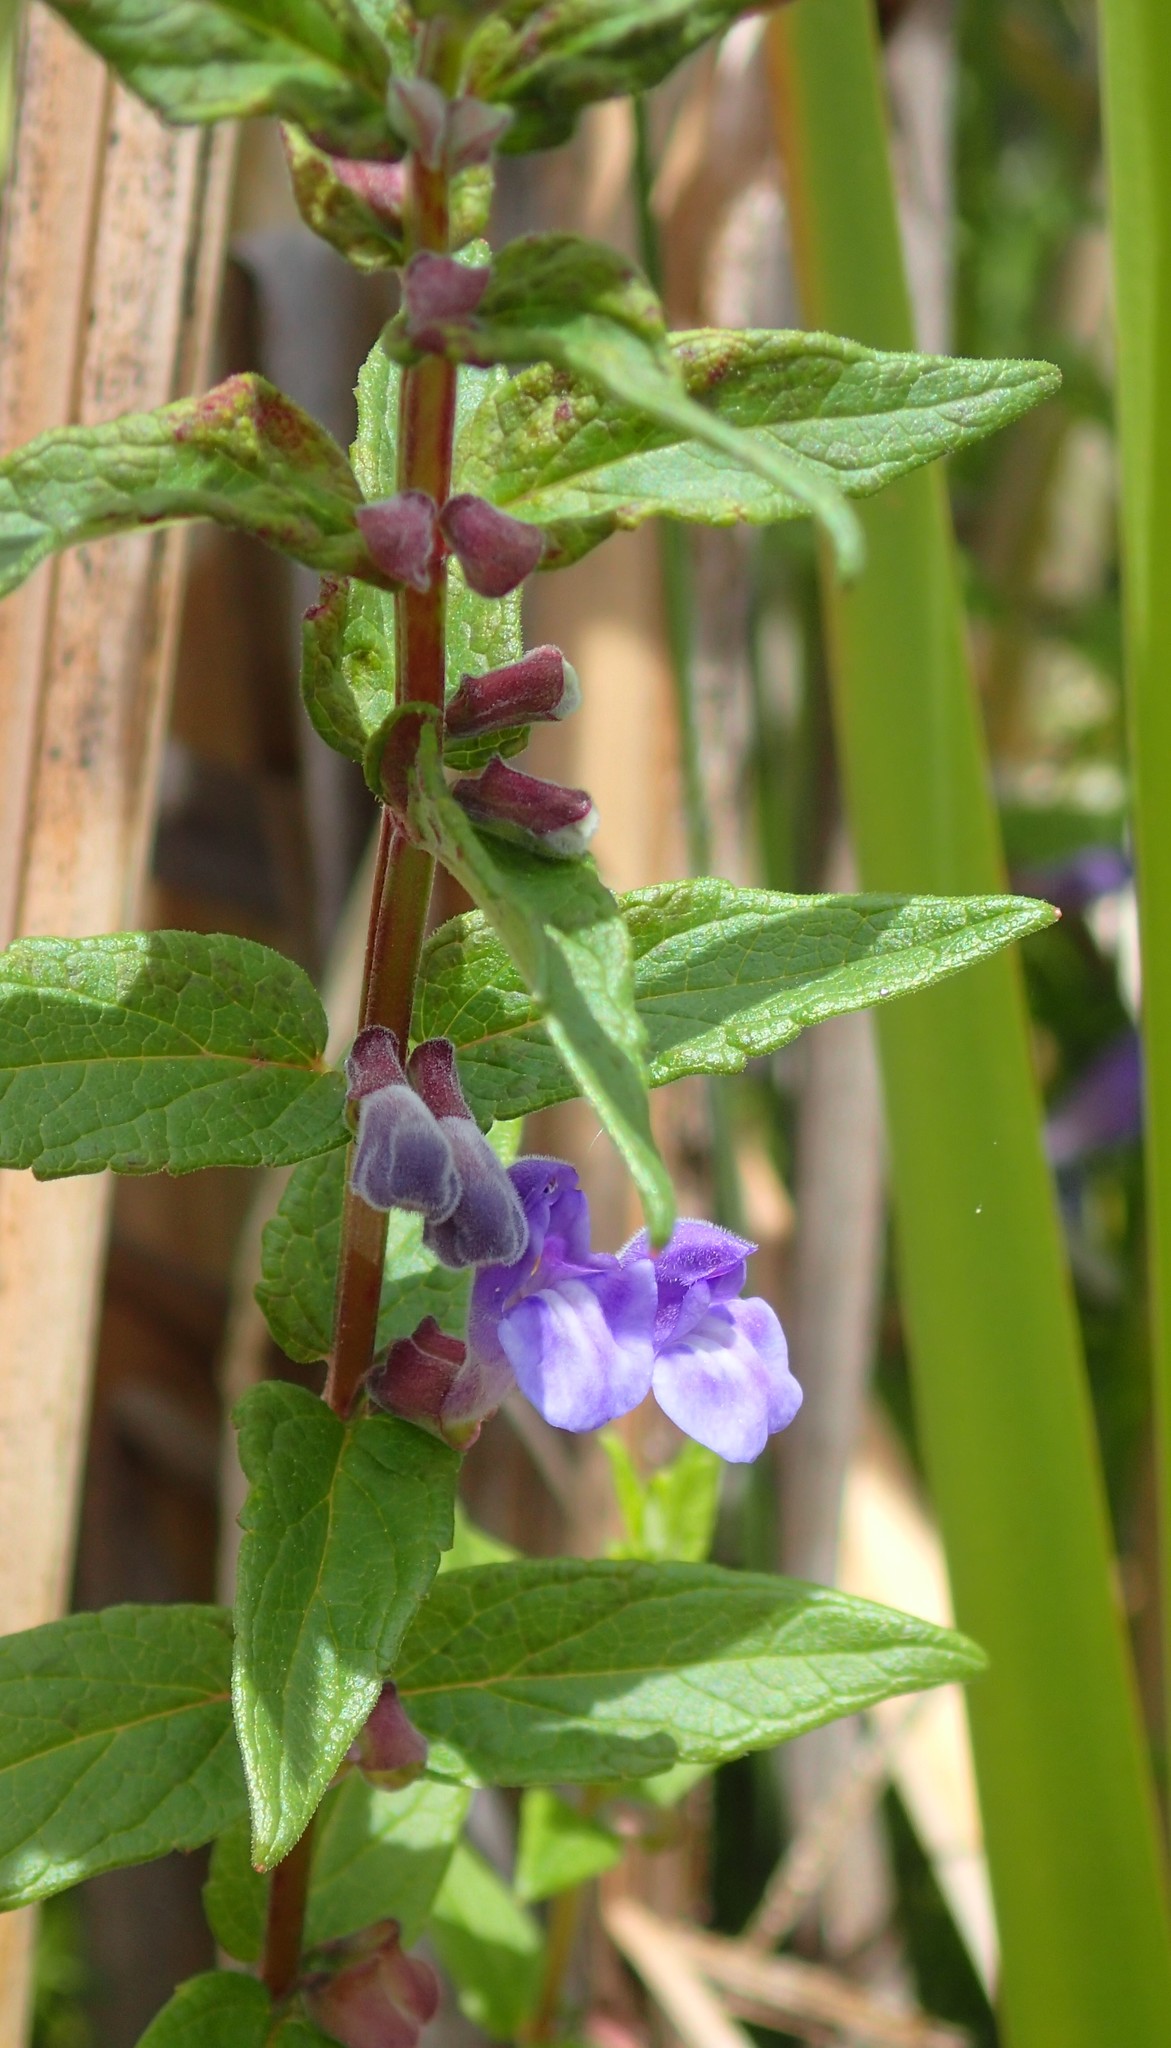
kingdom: Plantae
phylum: Tracheophyta
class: Magnoliopsida
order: Lamiales
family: Lamiaceae
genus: Scutellaria
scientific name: Scutellaria galericulata
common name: Skullcap
